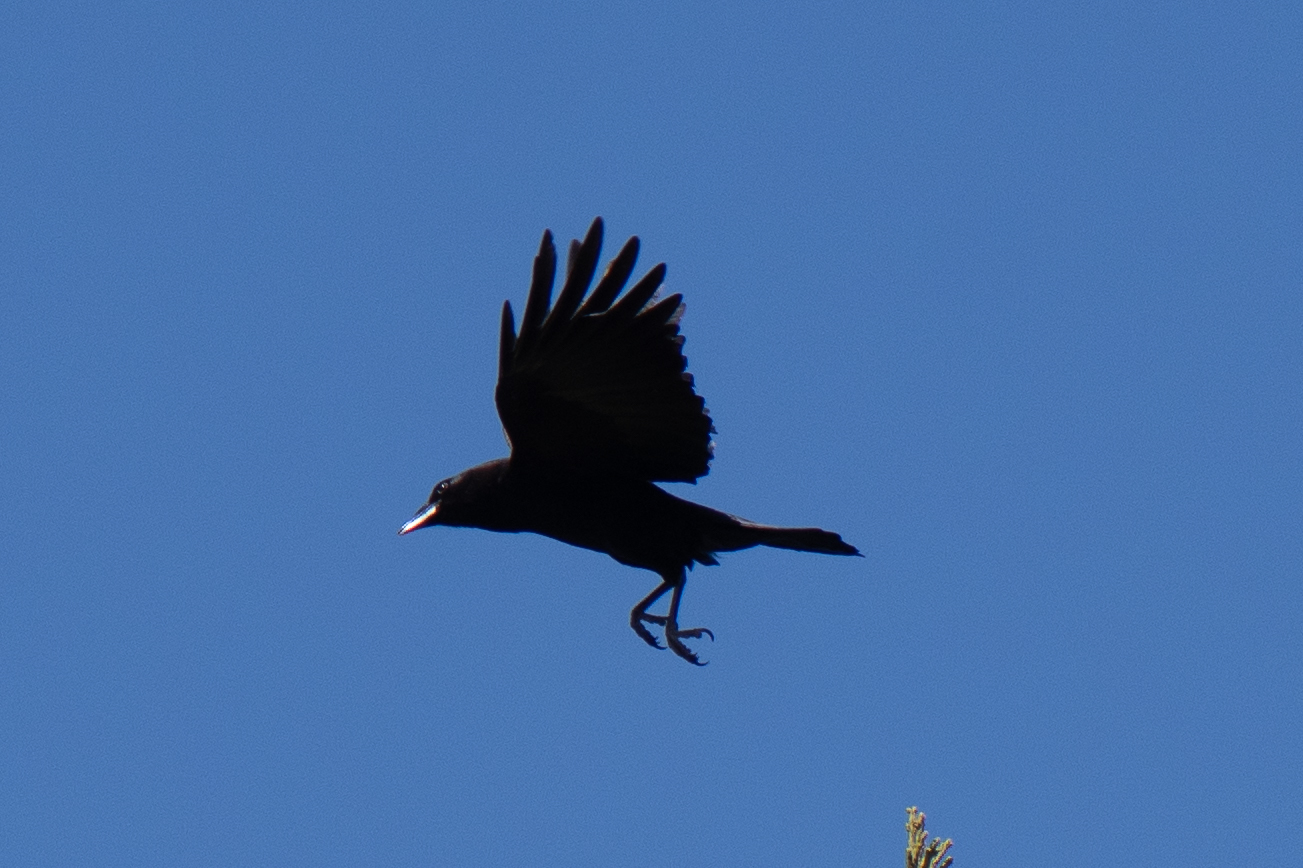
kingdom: Animalia
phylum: Chordata
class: Aves
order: Passeriformes
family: Corvidae
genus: Corvus
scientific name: Corvus brachyrhynchos
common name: American crow
